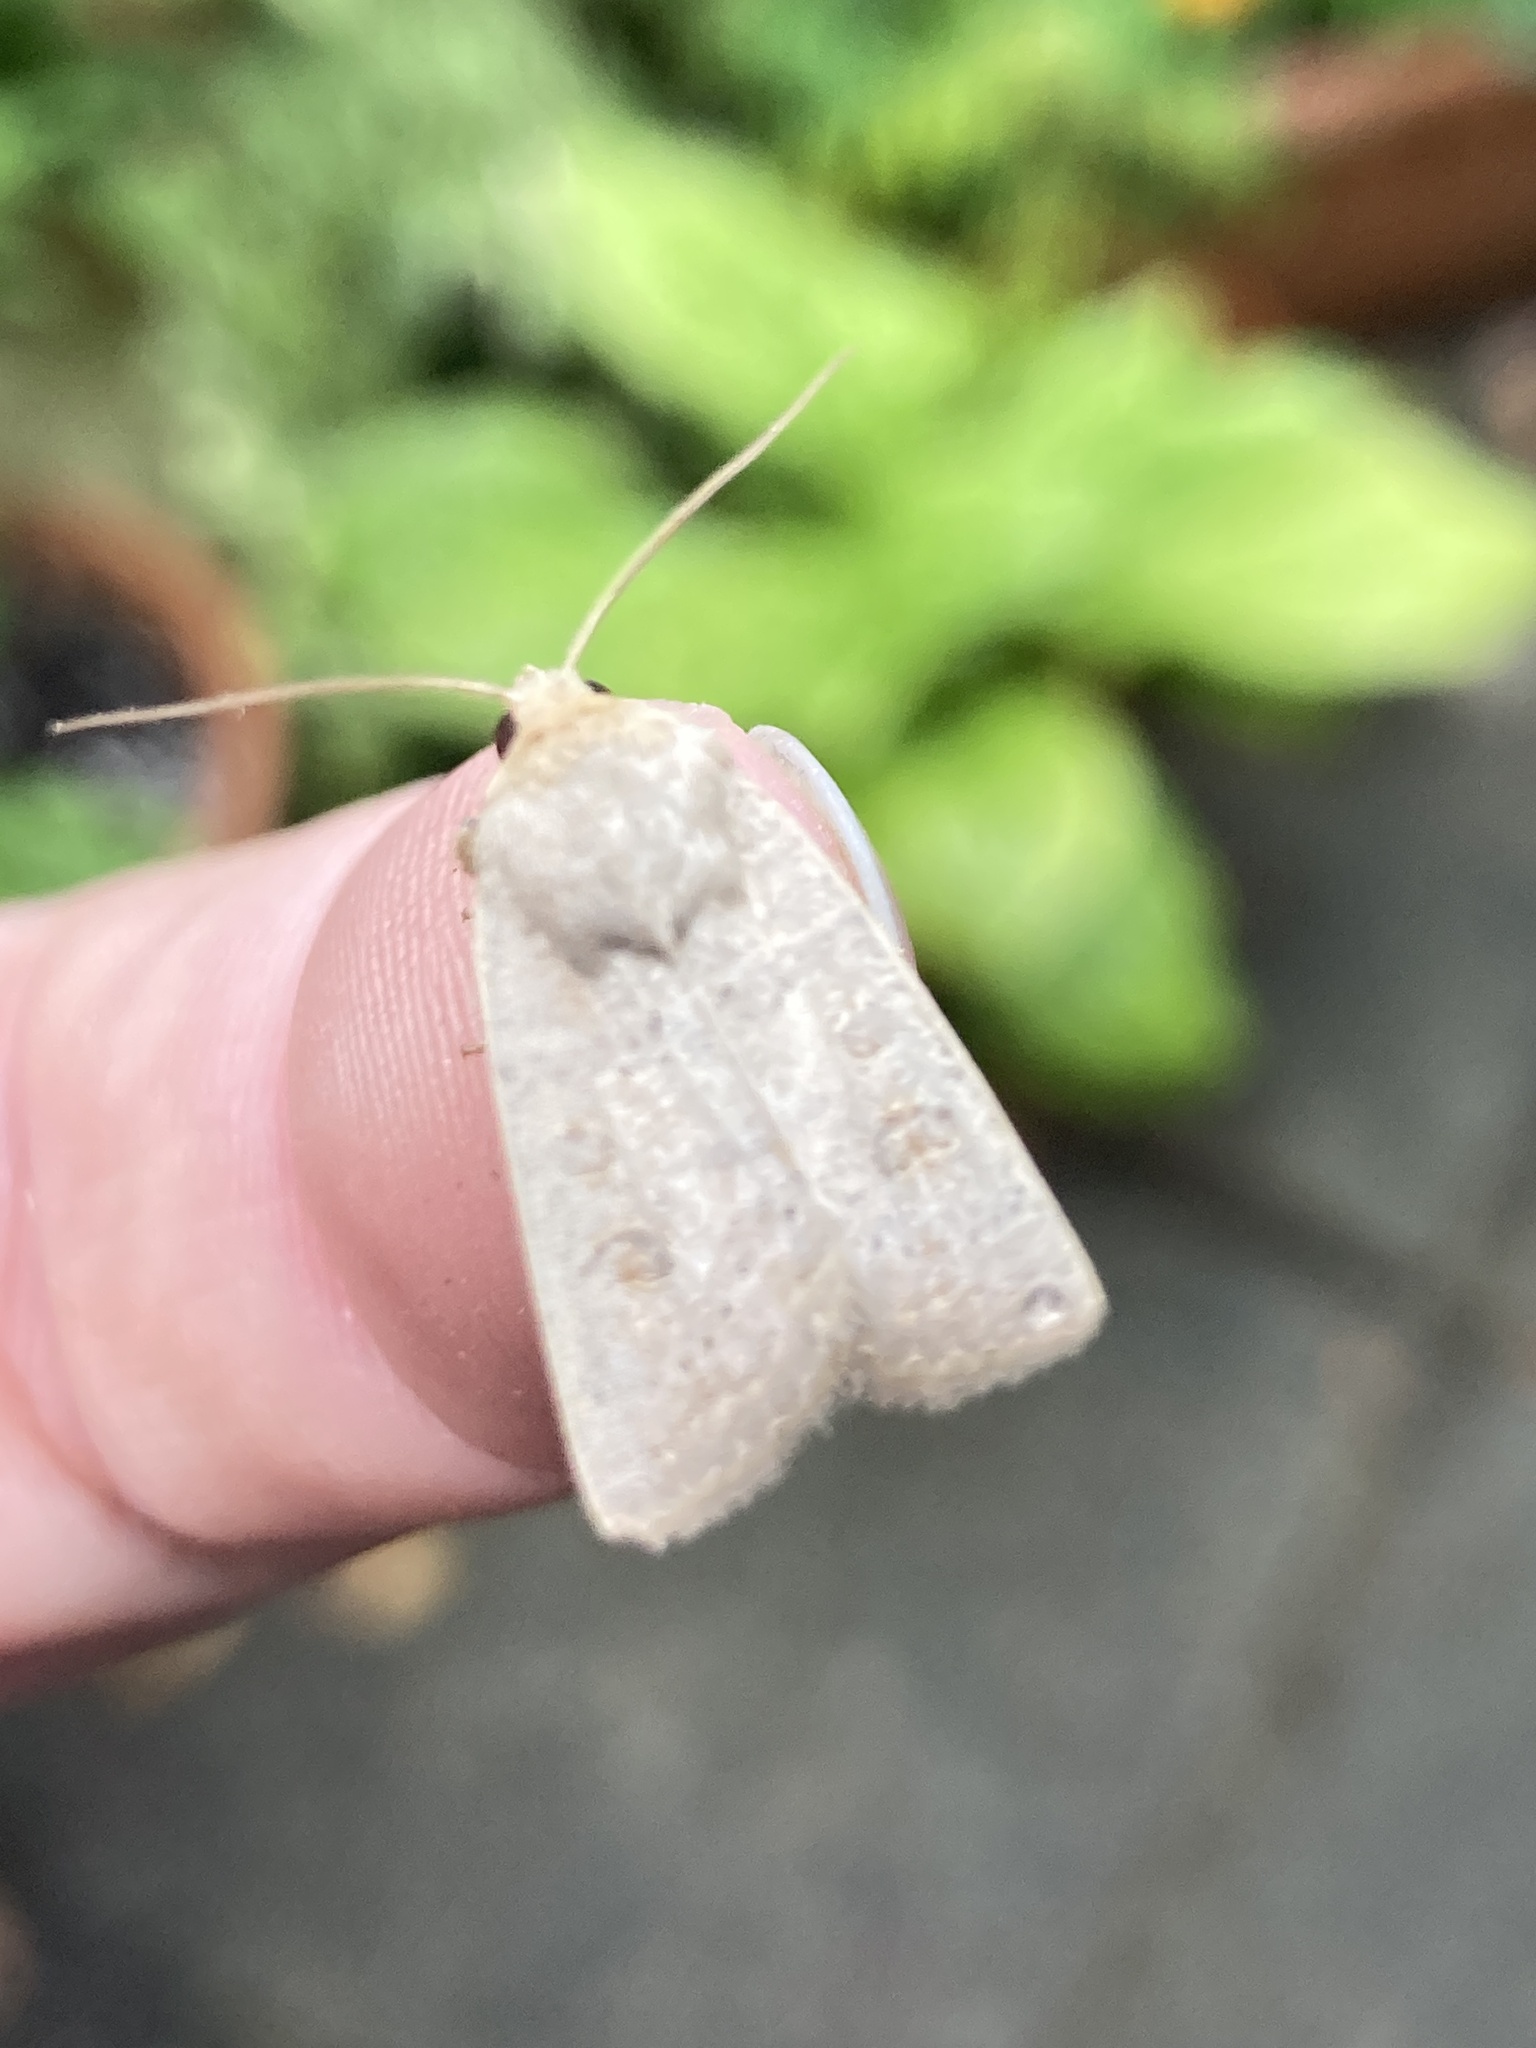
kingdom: Animalia
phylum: Arthropoda
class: Insecta
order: Lepidoptera
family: Noctuidae
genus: Hoplodrina
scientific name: Hoplodrina ambigua
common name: Vine's rustic
